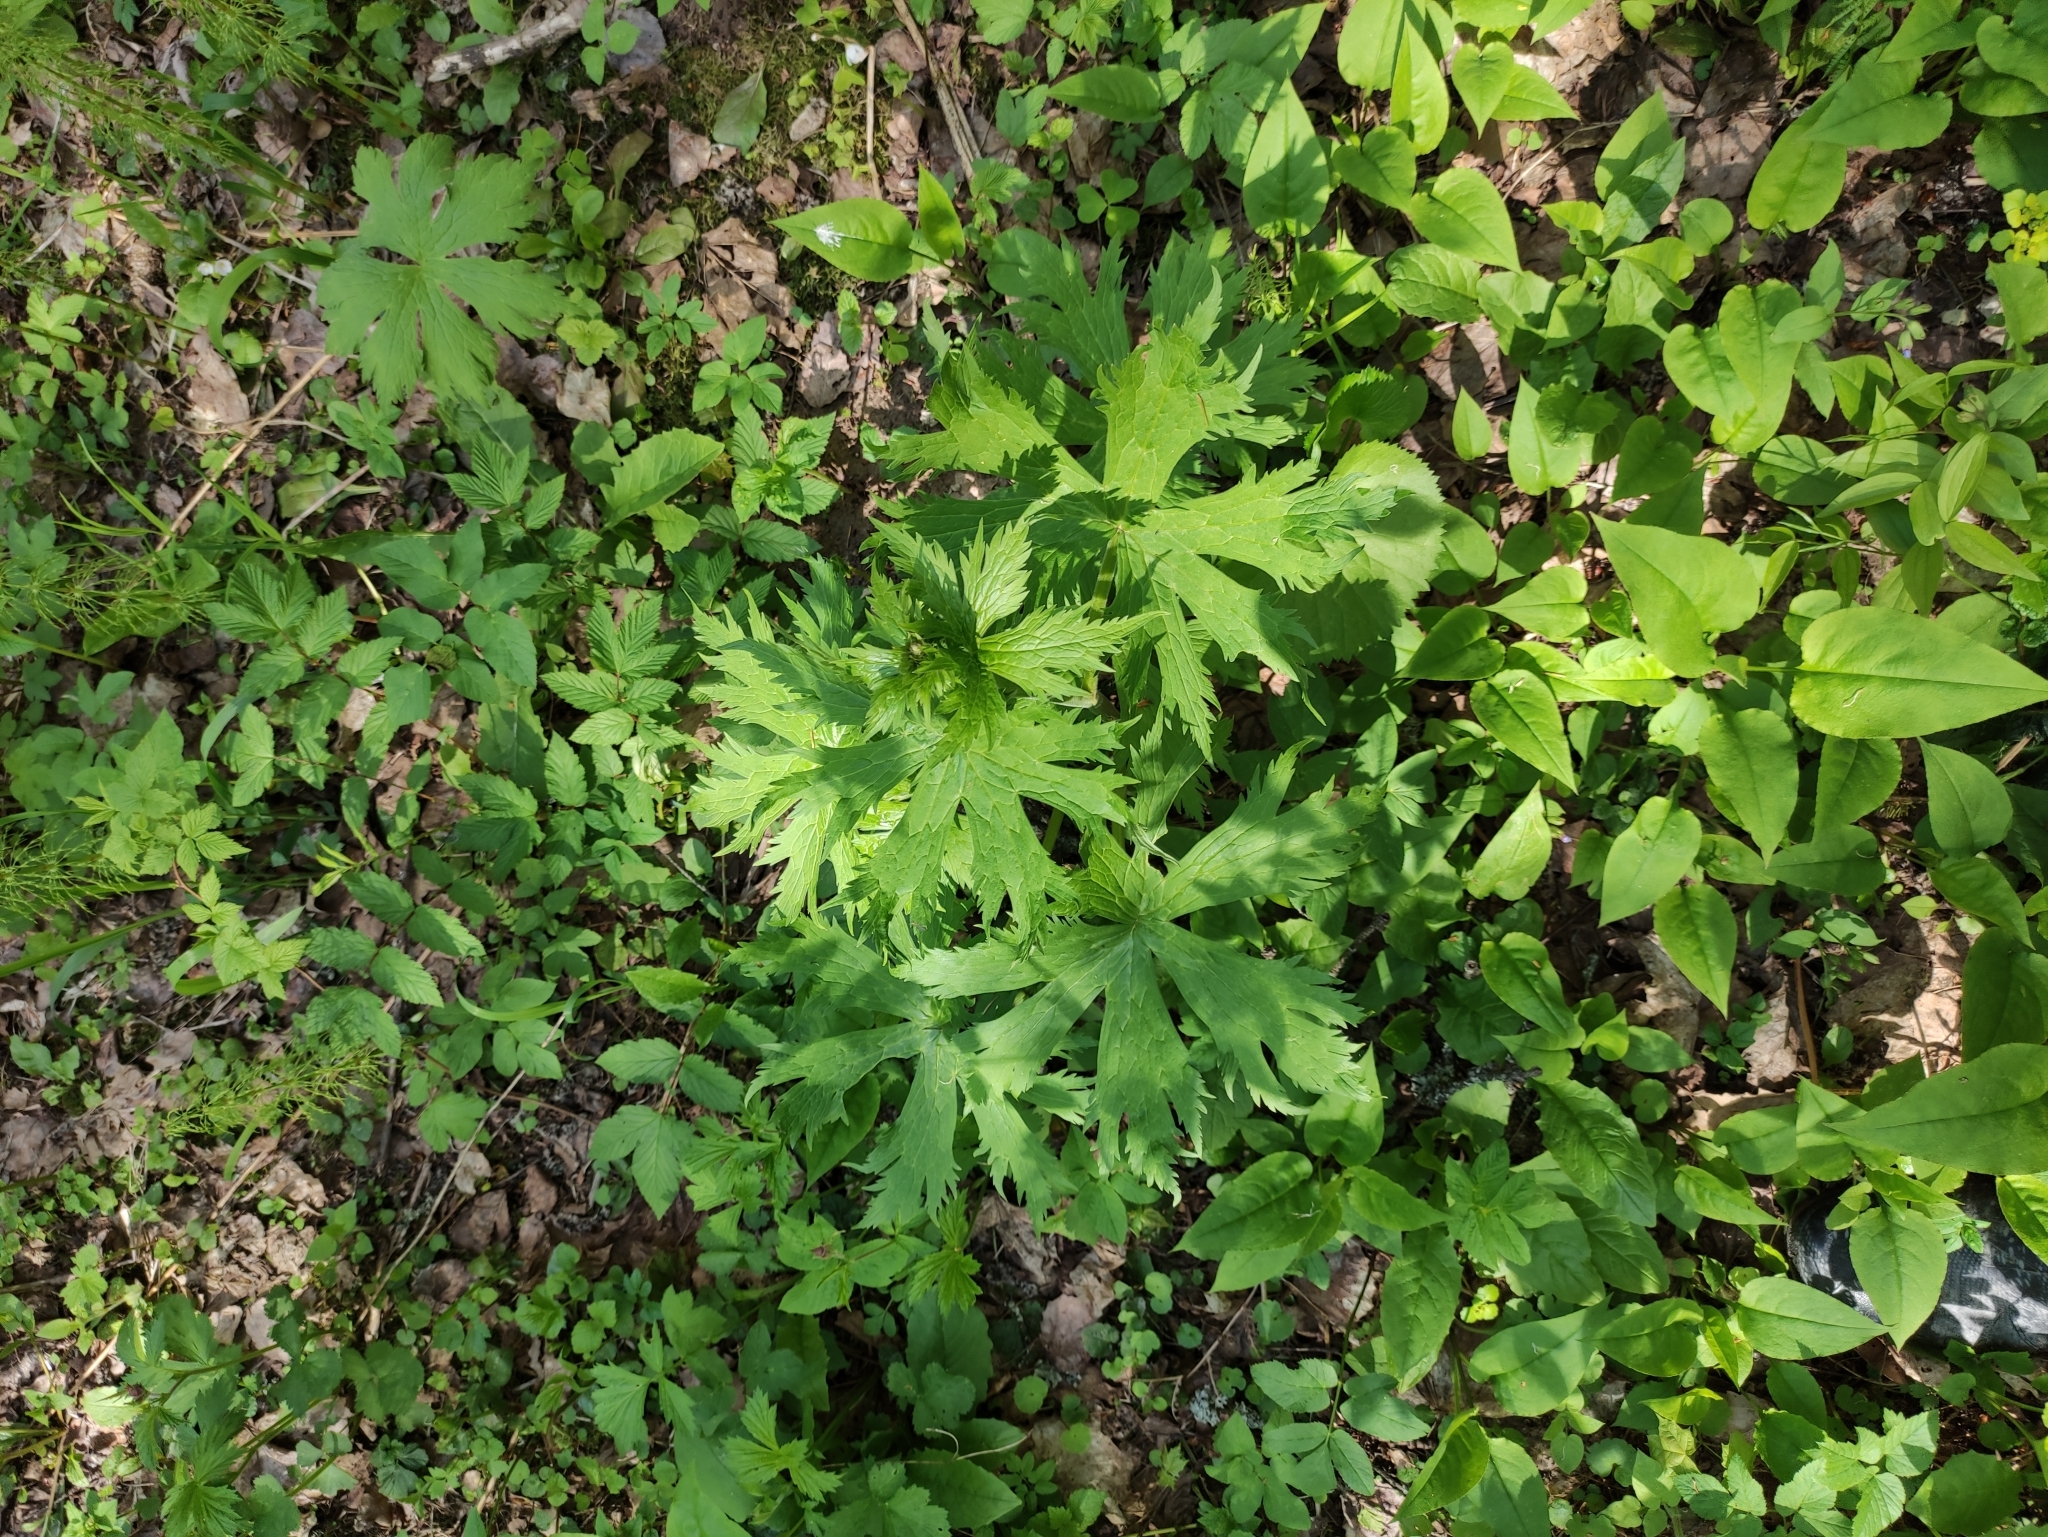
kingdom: Plantae
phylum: Tracheophyta
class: Magnoliopsida
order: Ranunculales
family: Ranunculaceae
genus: Aconitum
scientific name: Aconitum septentrionale
